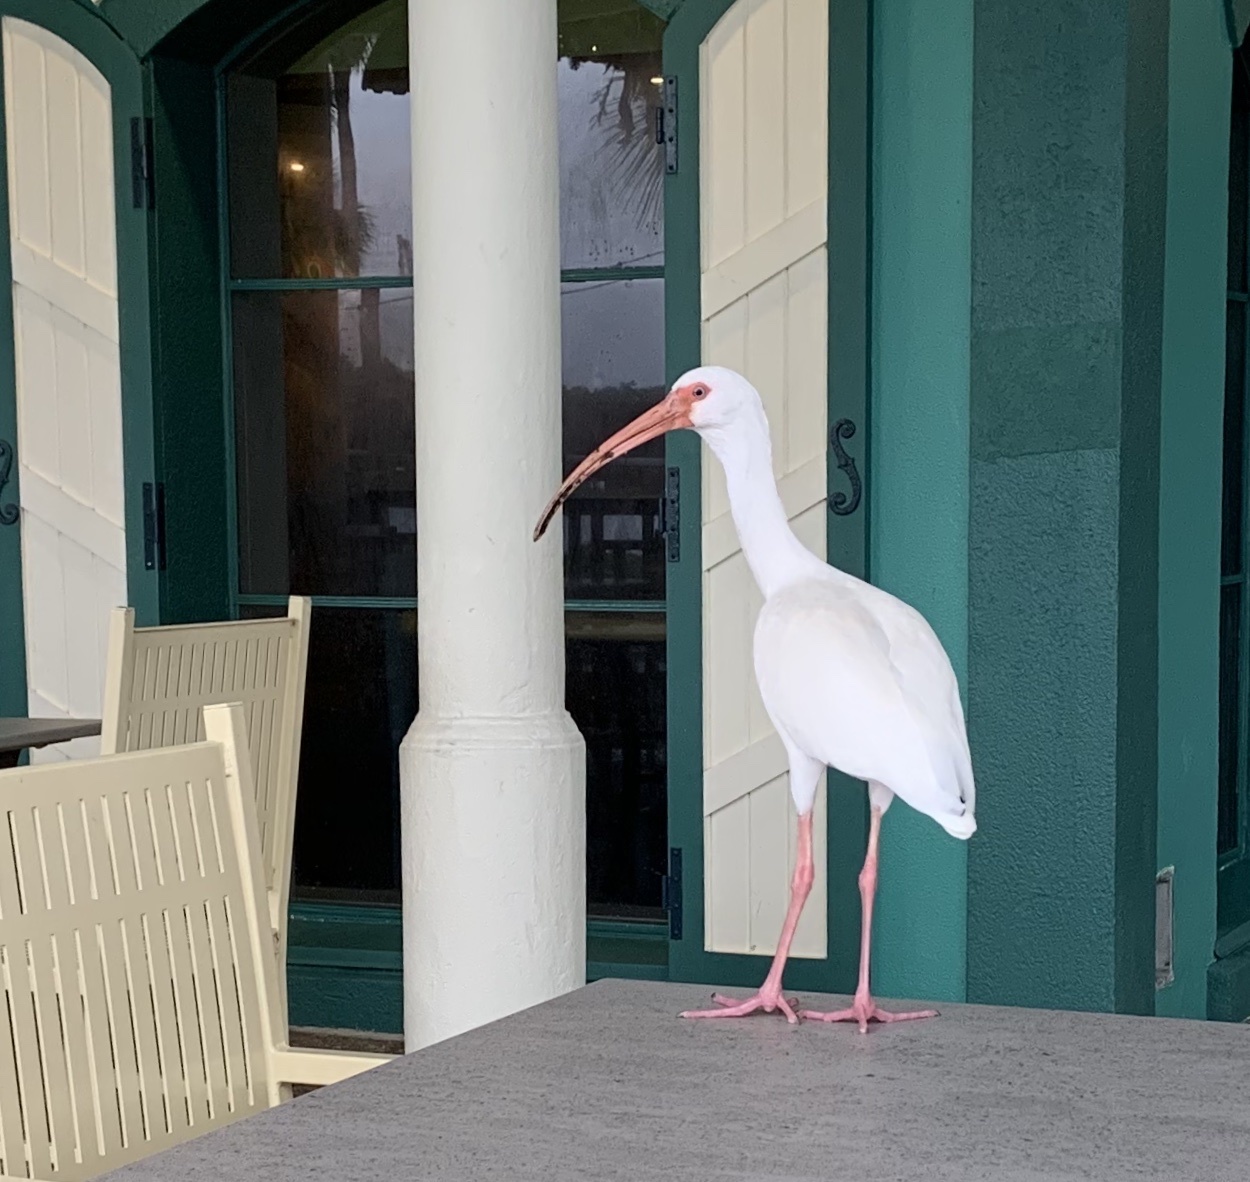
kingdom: Animalia
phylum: Chordata
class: Aves
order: Pelecaniformes
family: Threskiornithidae
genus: Eudocimus
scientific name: Eudocimus albus
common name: White ibis
